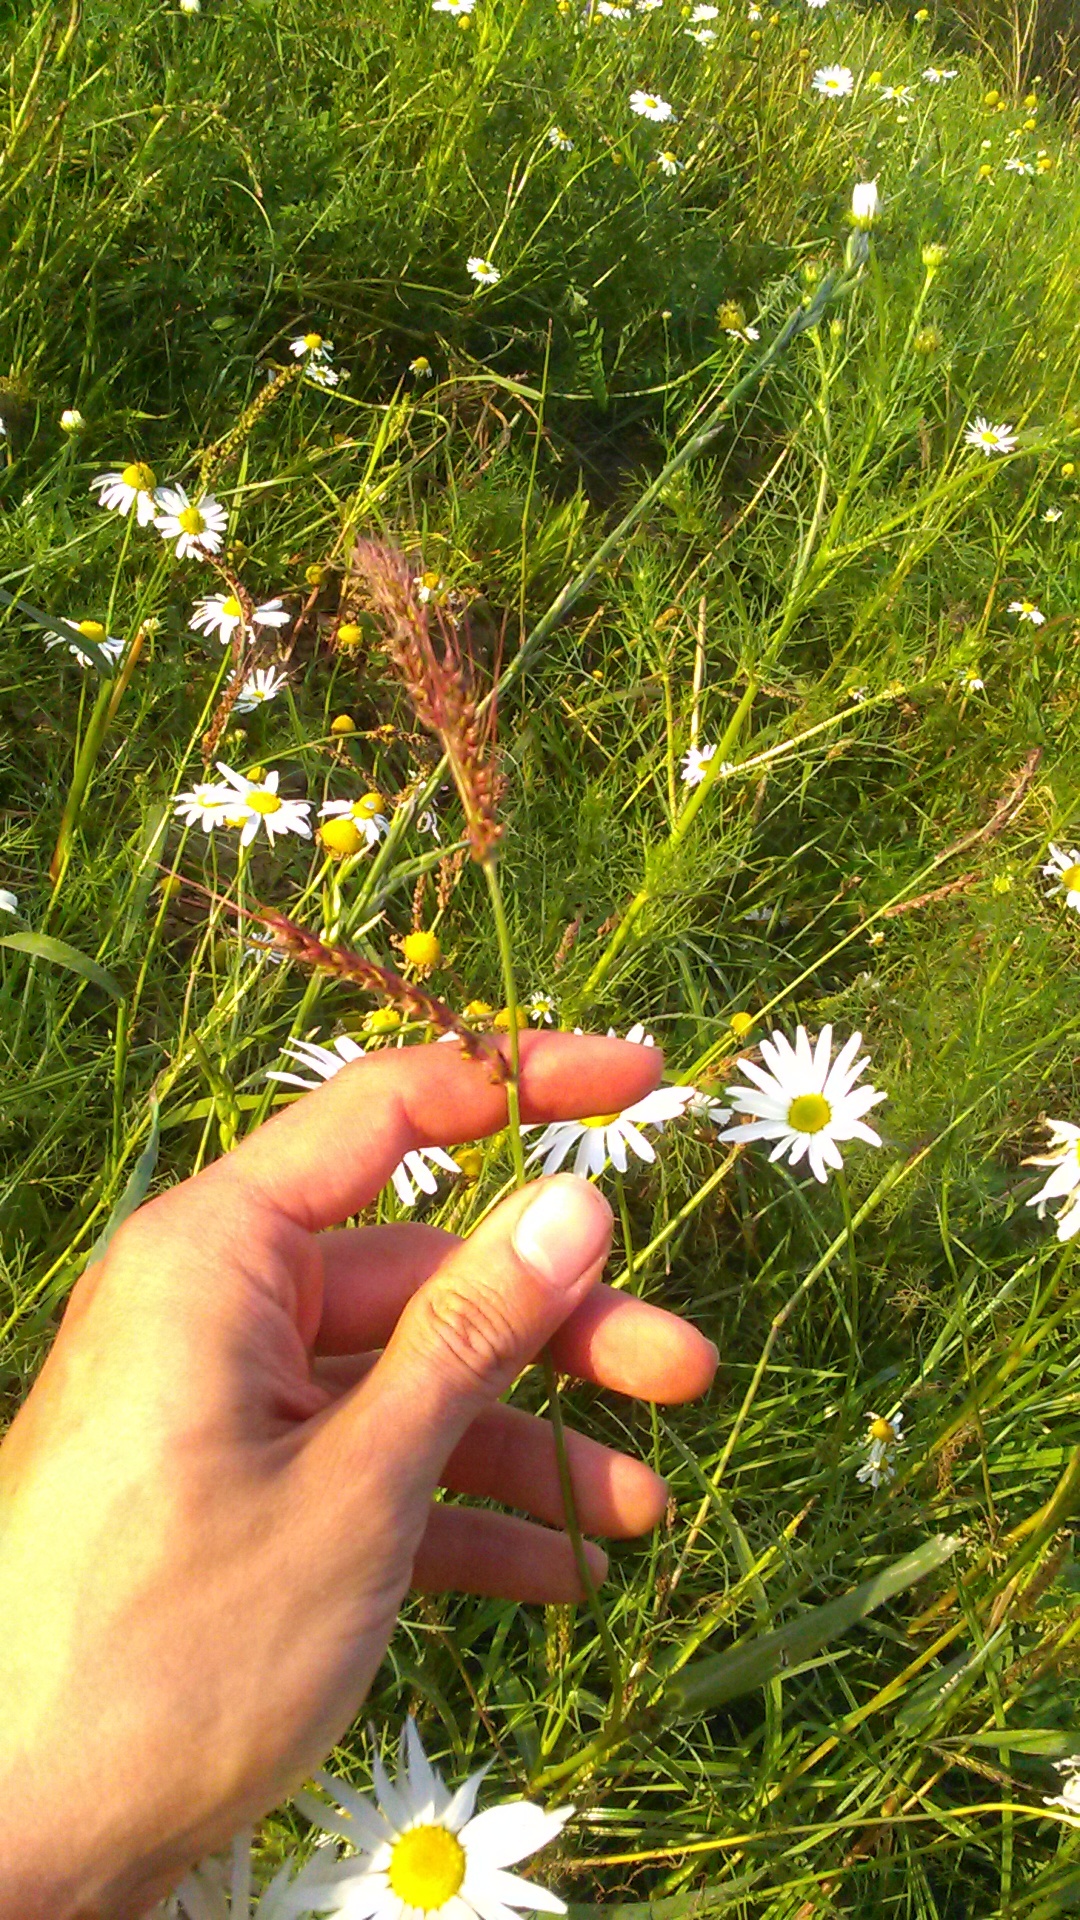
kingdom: Plantae
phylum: Tracheophyta
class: Liliopsida
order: Poales
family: Poaceae
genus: Echinochloa
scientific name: Echinochloa crus-galli
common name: Cockspur
